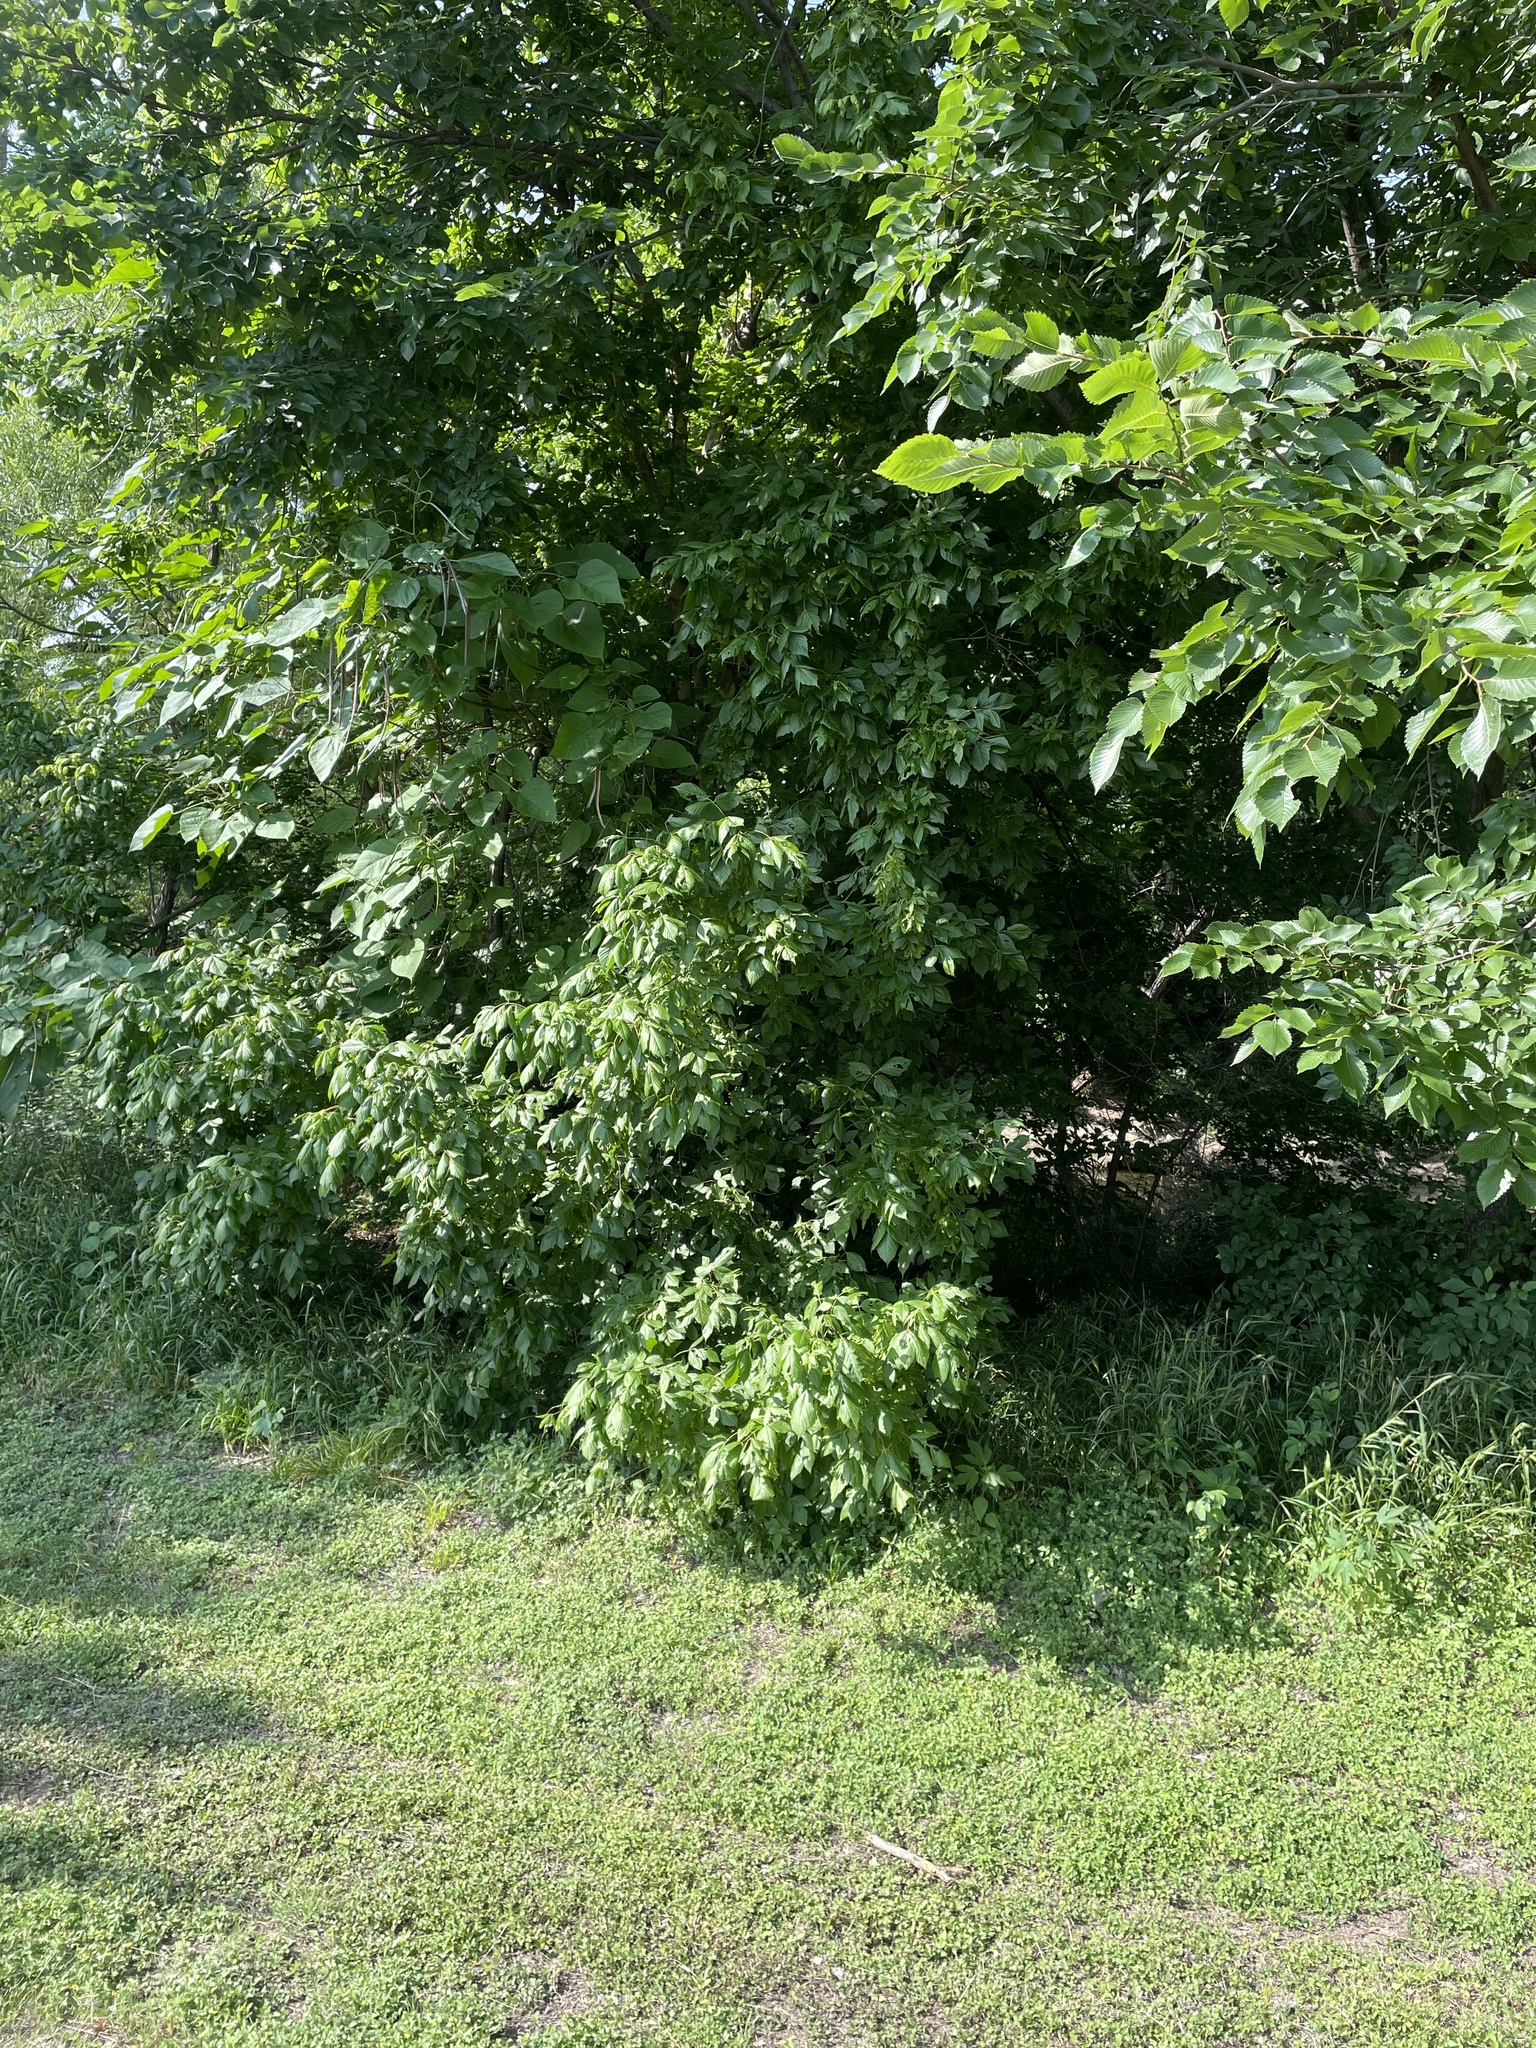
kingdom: Plantae
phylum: Tracheophyta
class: Magnoliopsida
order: Sapindales
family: Sapindaceae
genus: Acer
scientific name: Acer negundo
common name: Ashleaf maple
